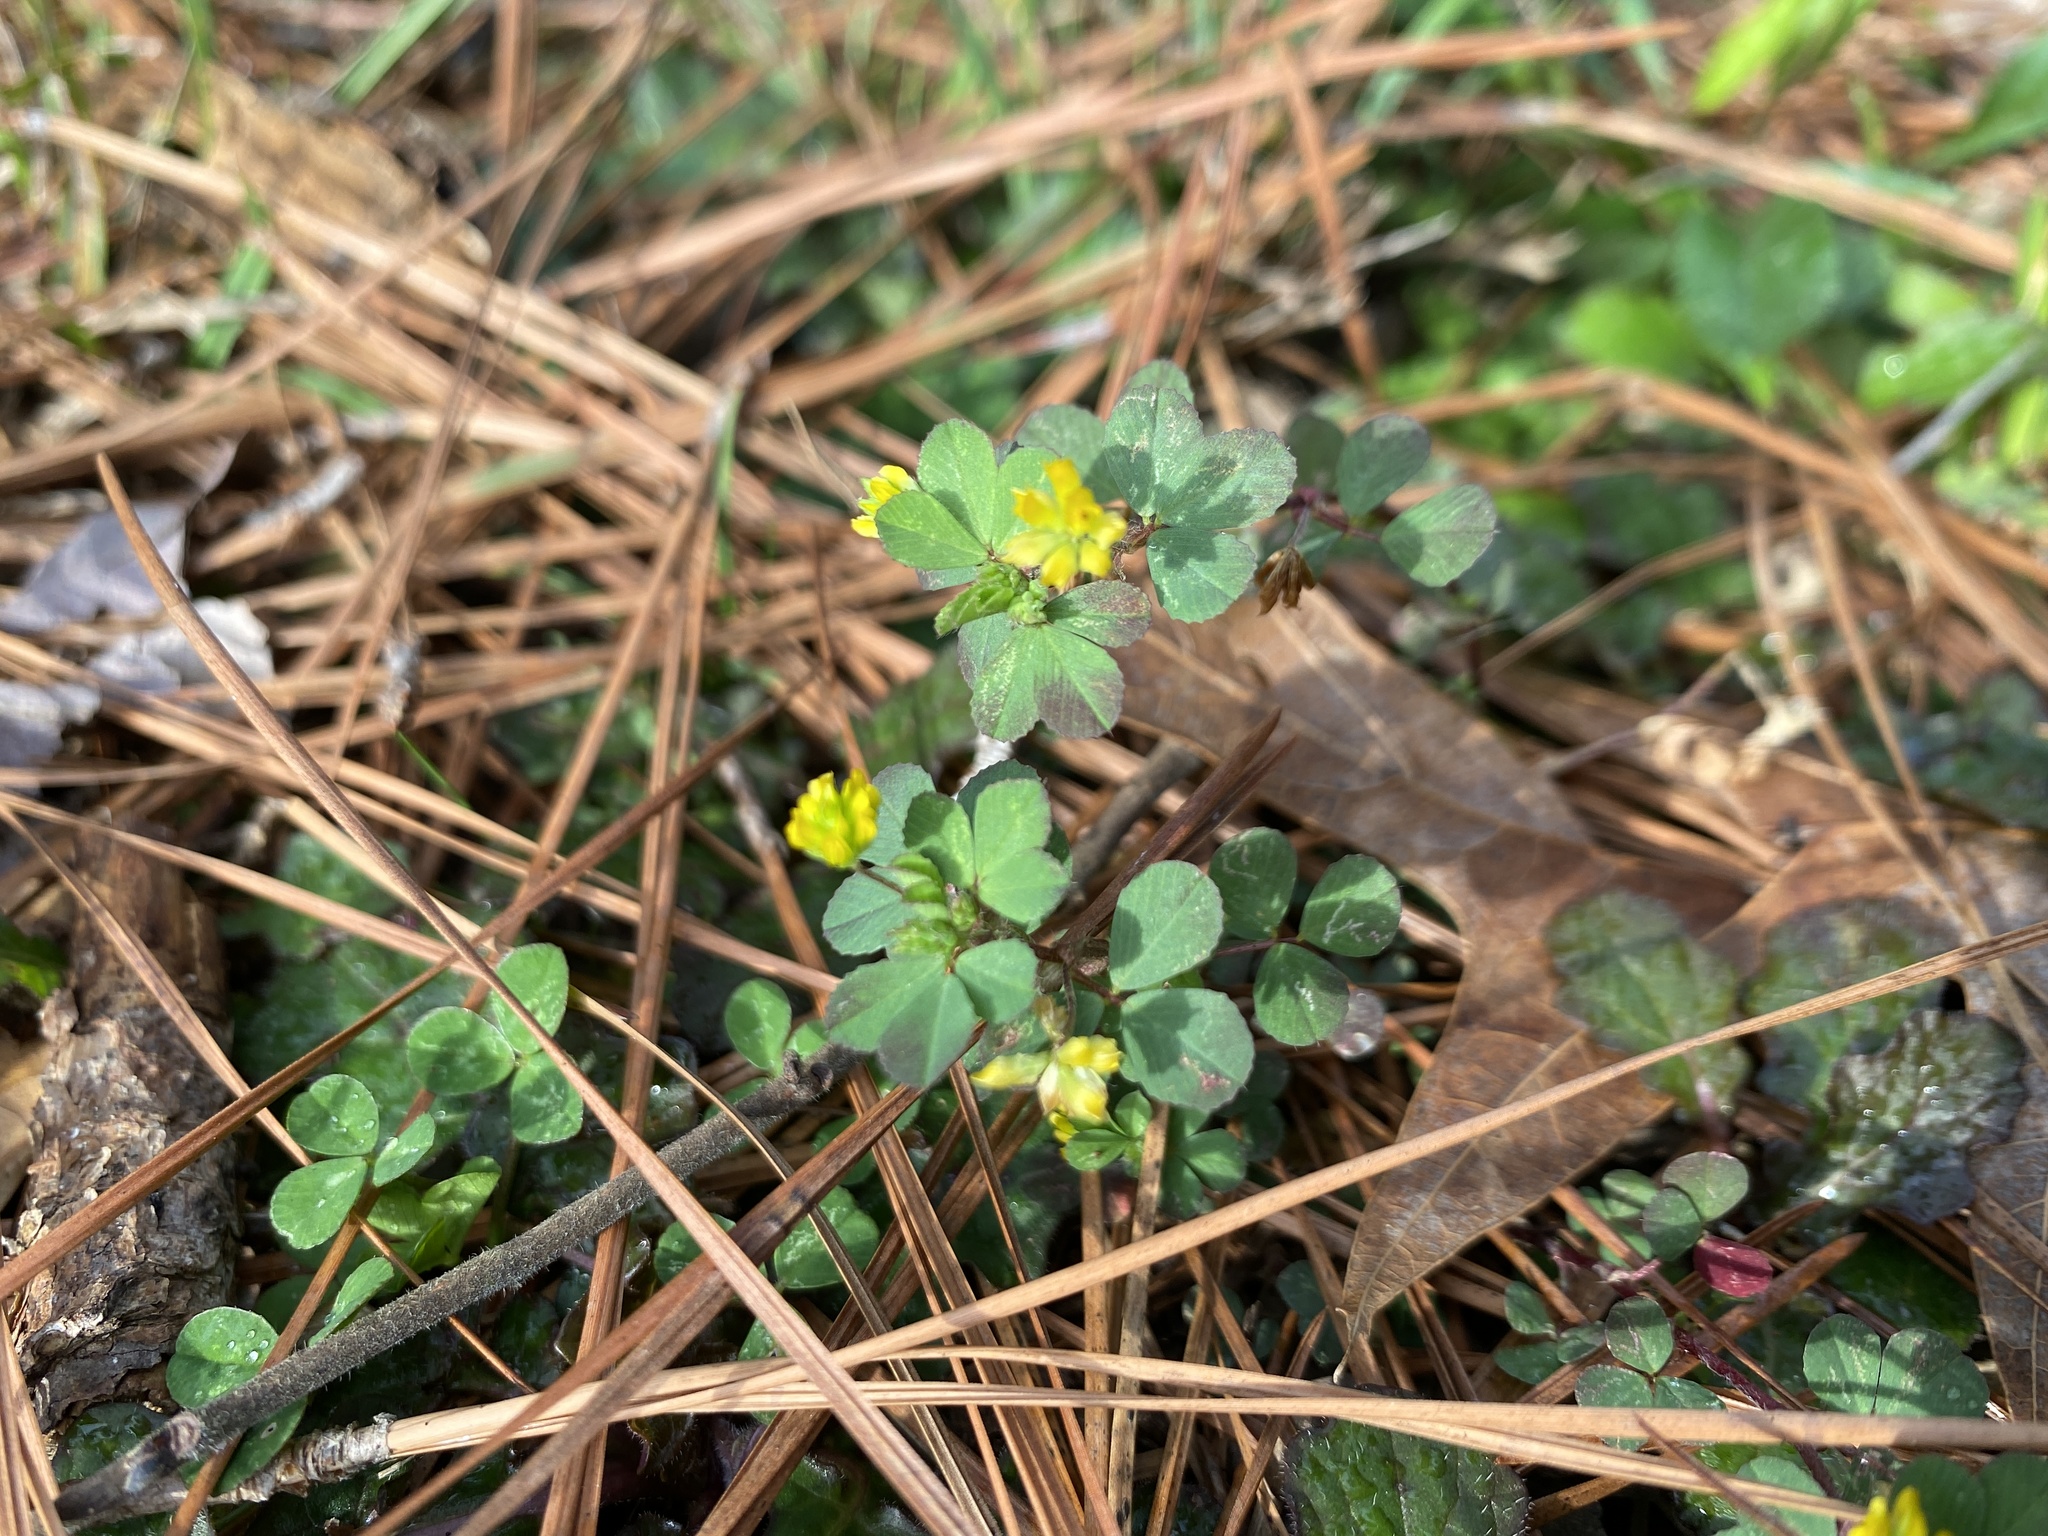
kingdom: Plantae
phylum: Tracheophyta
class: Magnoliopsida
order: Fabales
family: Fabaceae
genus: Trifolium
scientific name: Trifolium dubium
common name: Suckling clover
